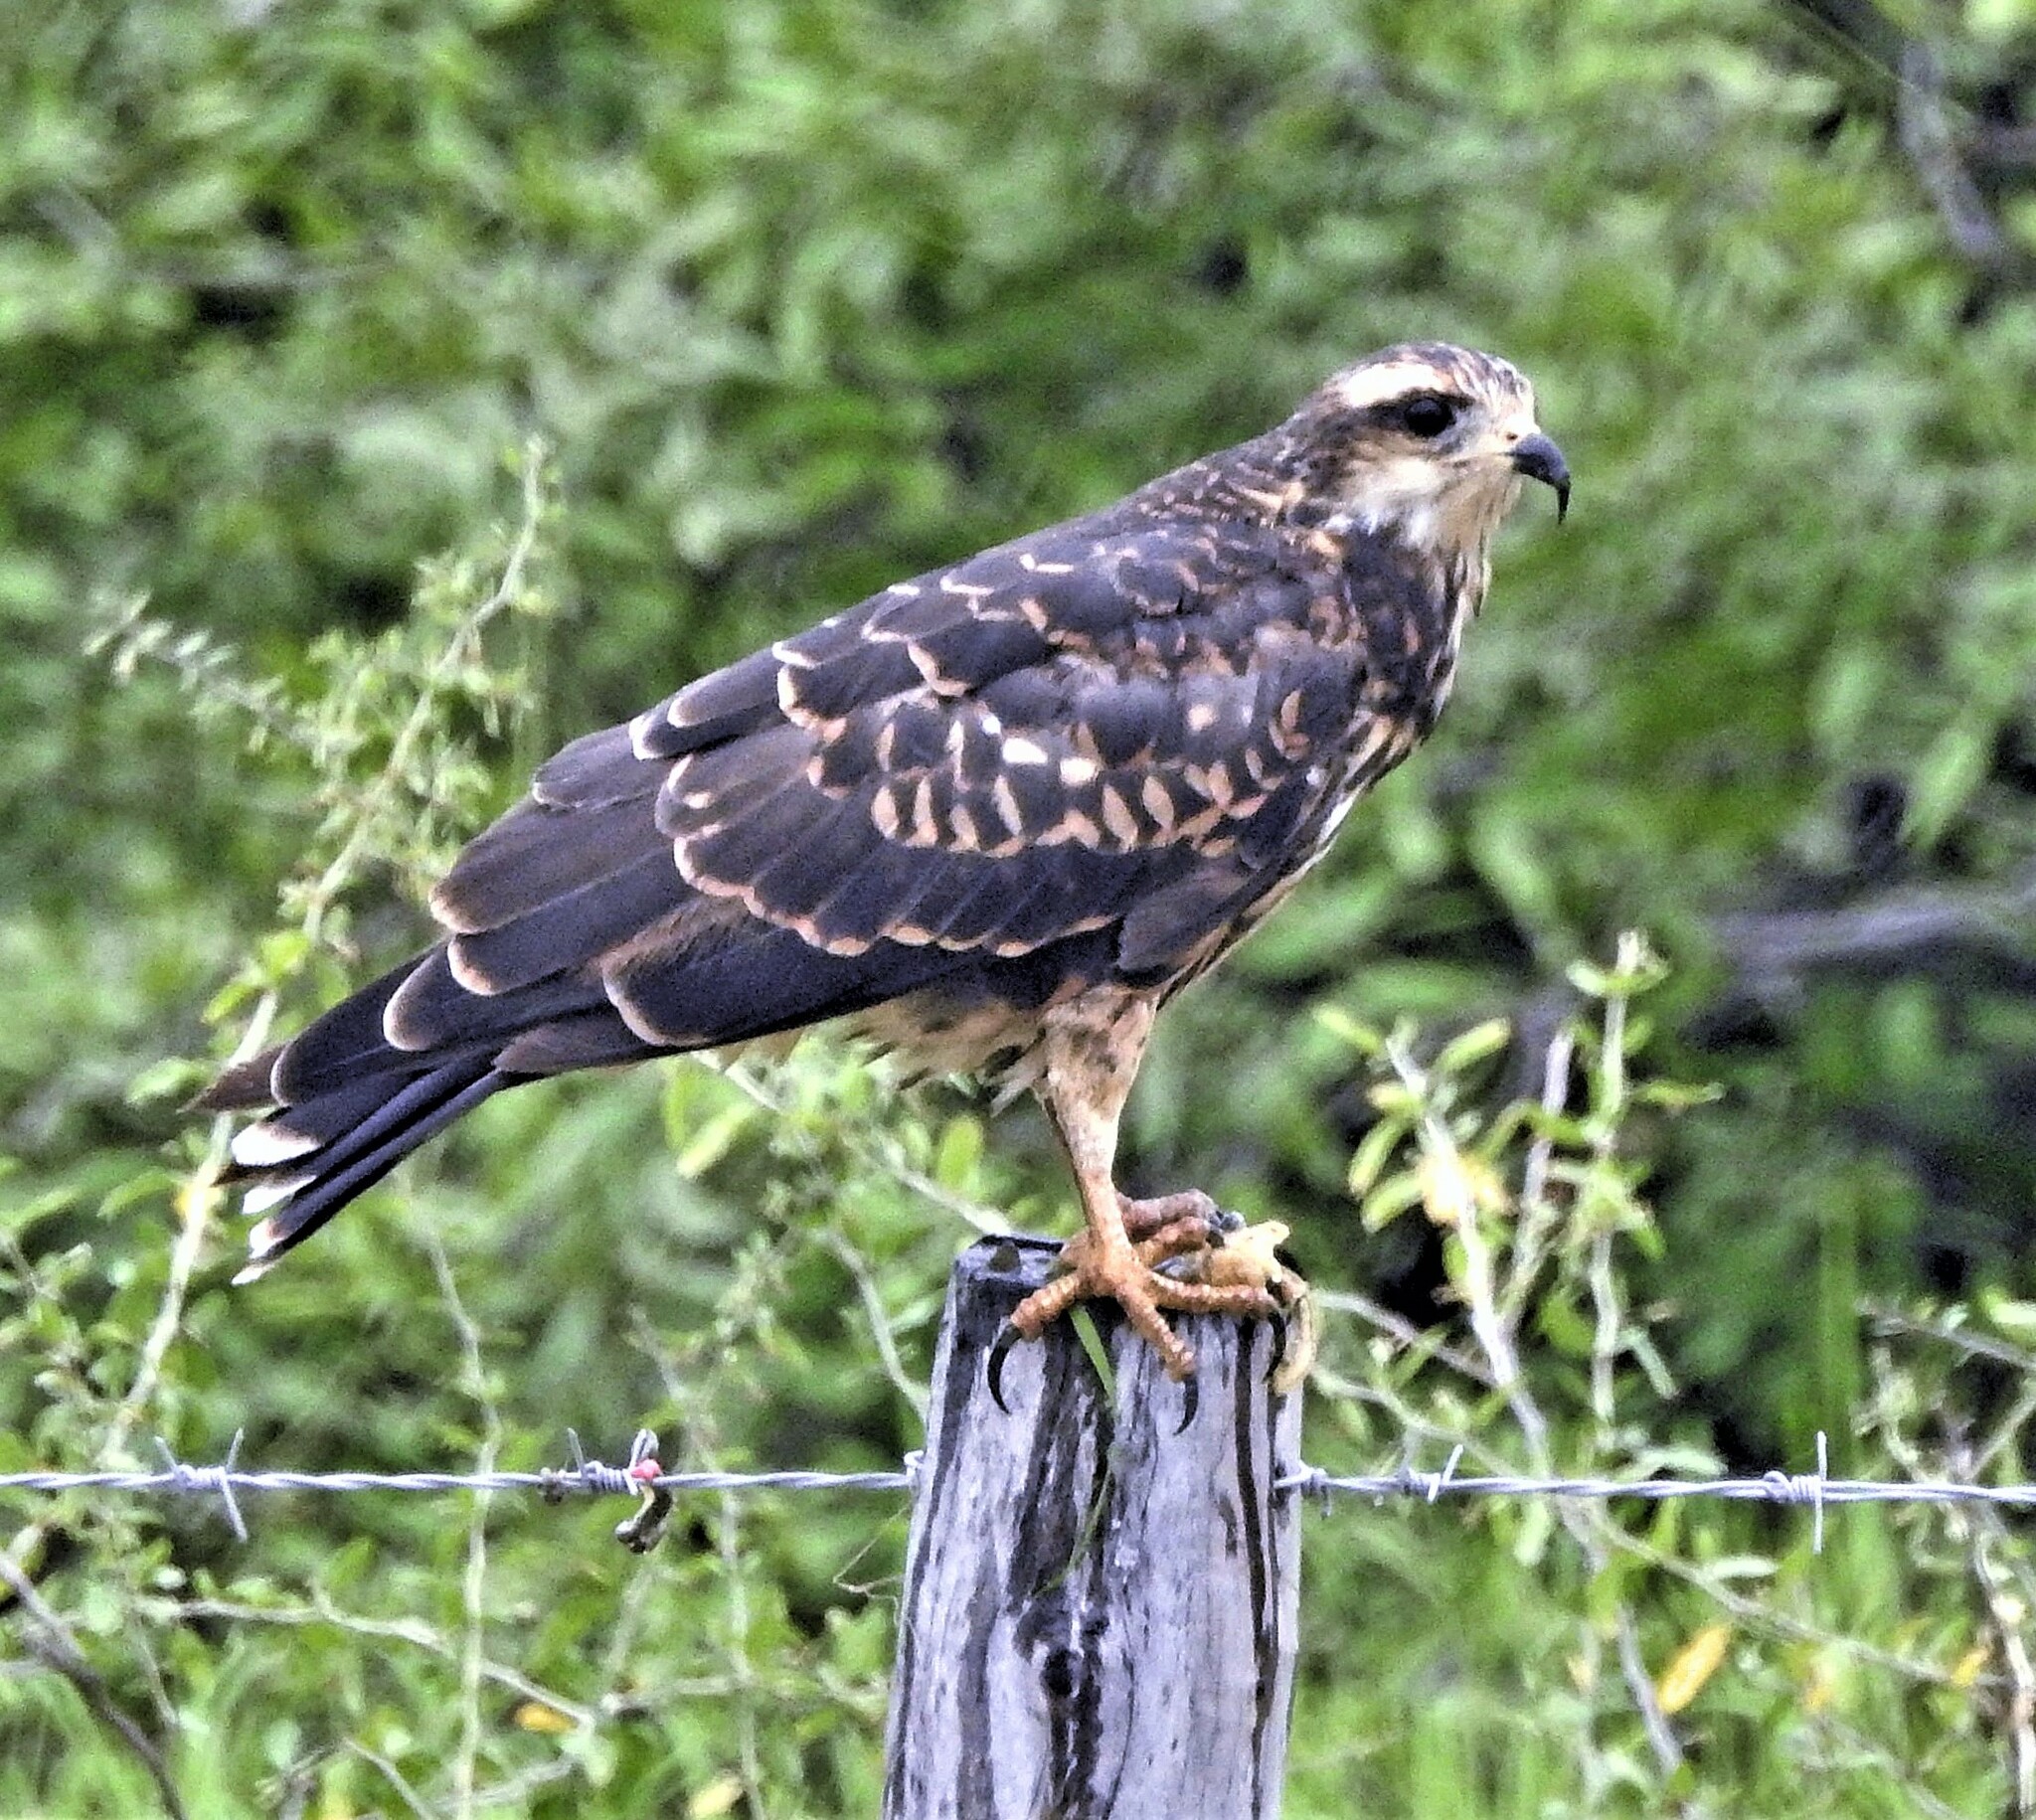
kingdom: Animalia
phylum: Chordata
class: Aves
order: Accipitriformes
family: Accipitridae
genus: Rostrhamus
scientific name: Rostrhamus sociabilis
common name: Snail kite
